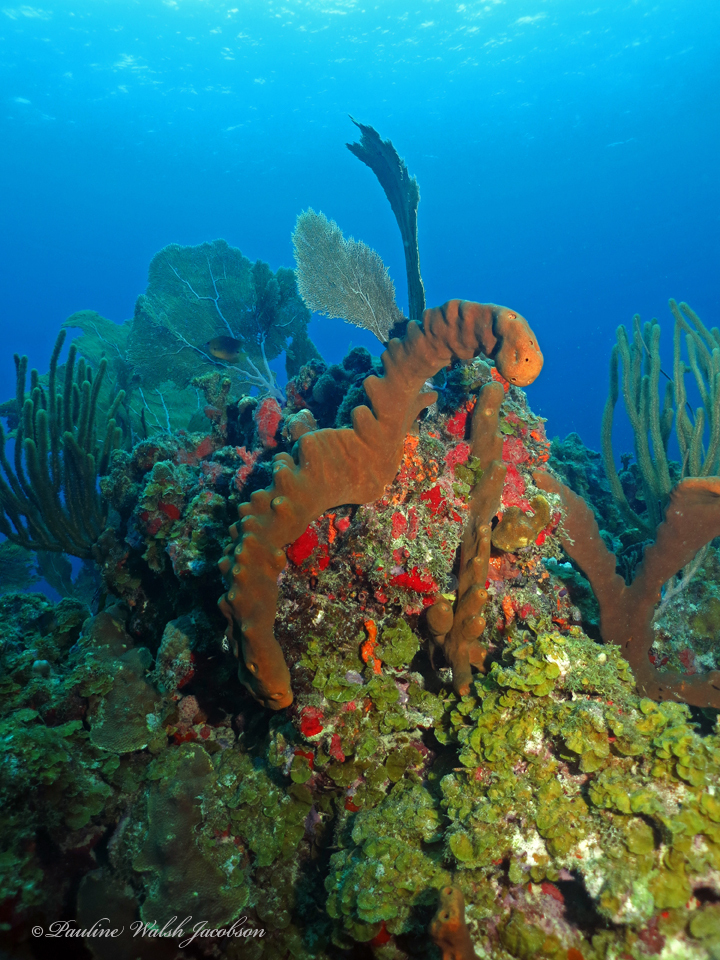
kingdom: Animalia
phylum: Porifera
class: Demospongiae
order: Agelasida
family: Agelasidae
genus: Agelas
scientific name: Agelas conifera
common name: Brown tube sponge
